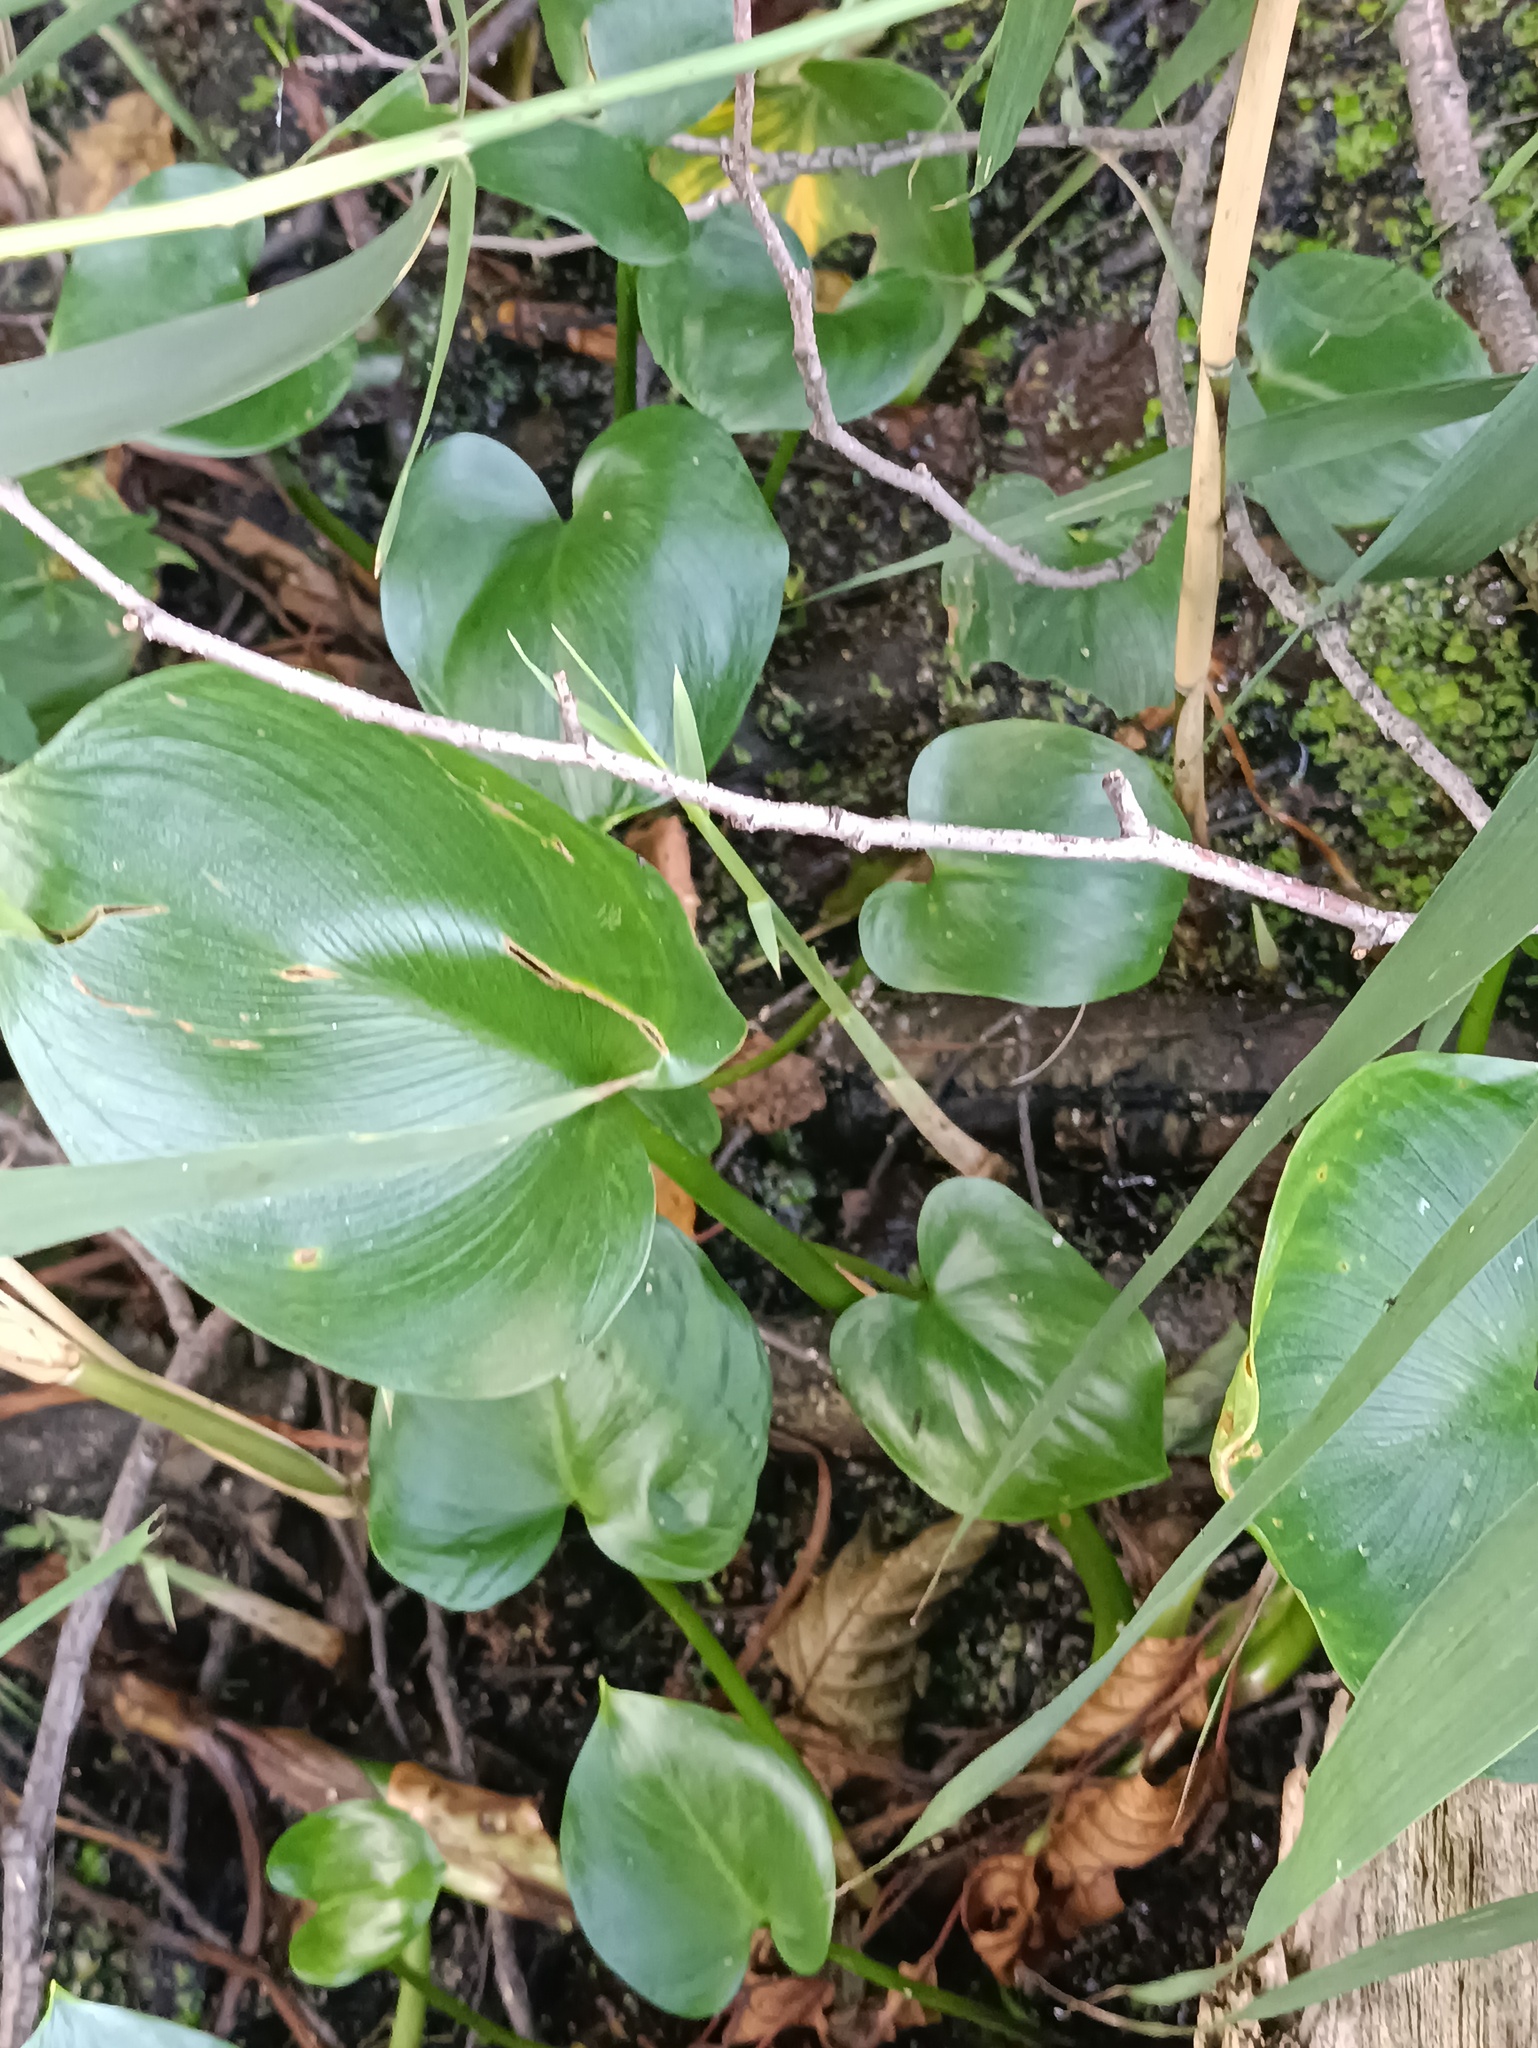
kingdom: Plantae
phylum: Tracheophyta
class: Liliopsida
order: Alismatales
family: Araceae
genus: Calla
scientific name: Calla palustris
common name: Bog arum
